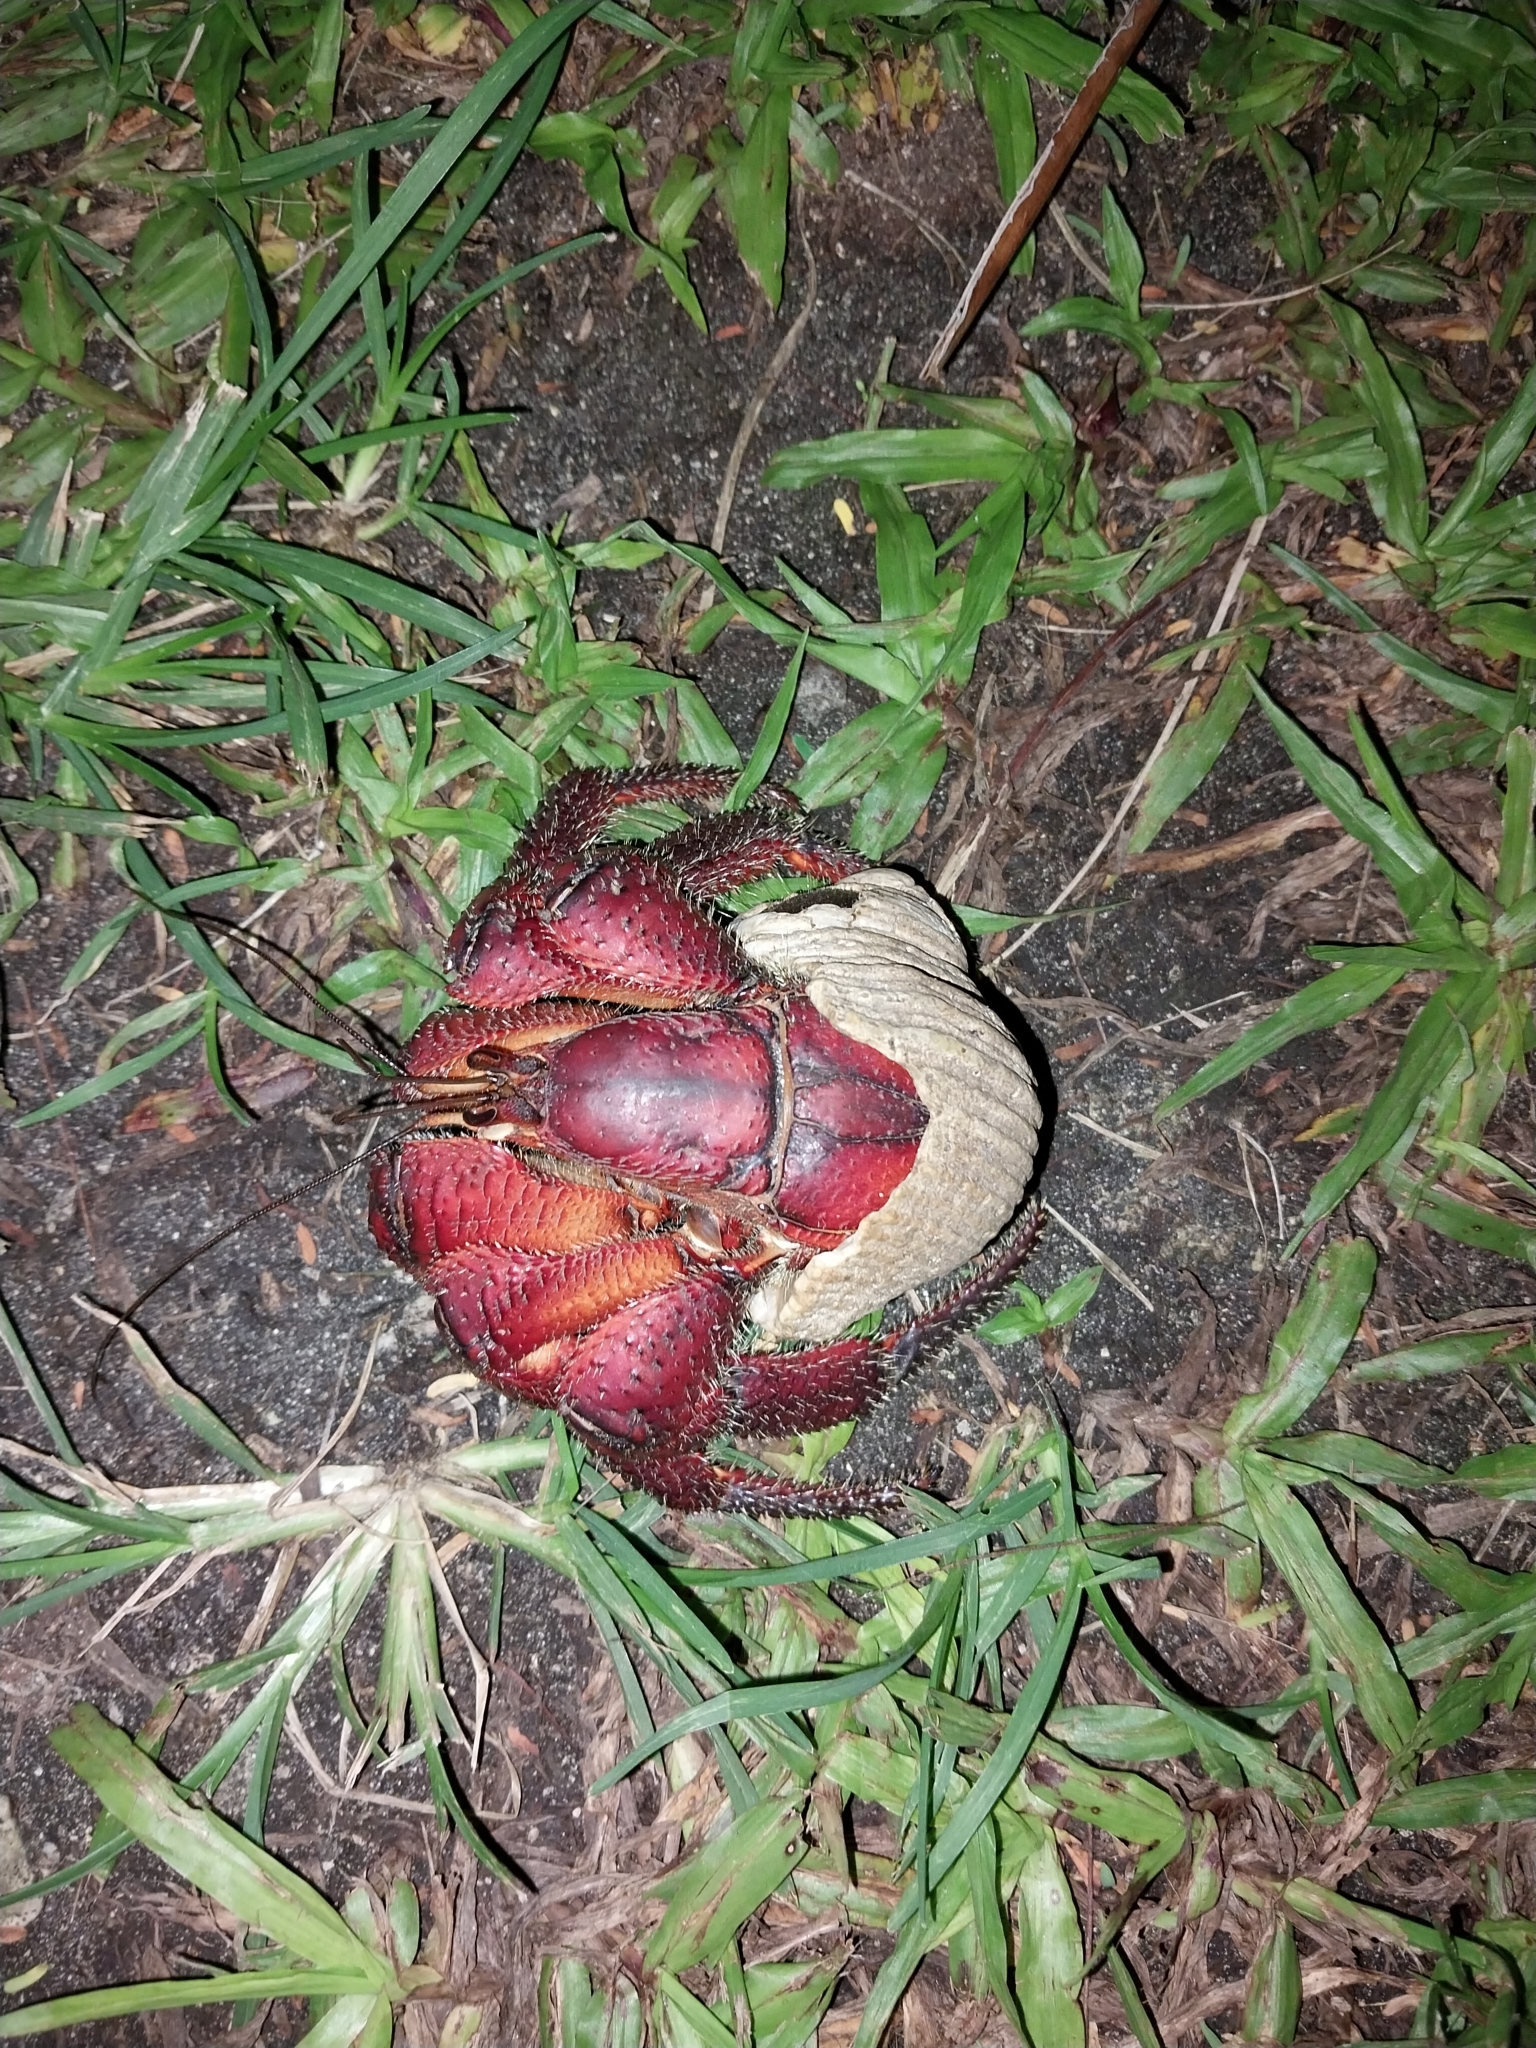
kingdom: Animalia
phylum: Arthropoda
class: Malacostraca
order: Decapoda
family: Coenobitidae
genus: Coenobita
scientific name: Coenobita spinosus
